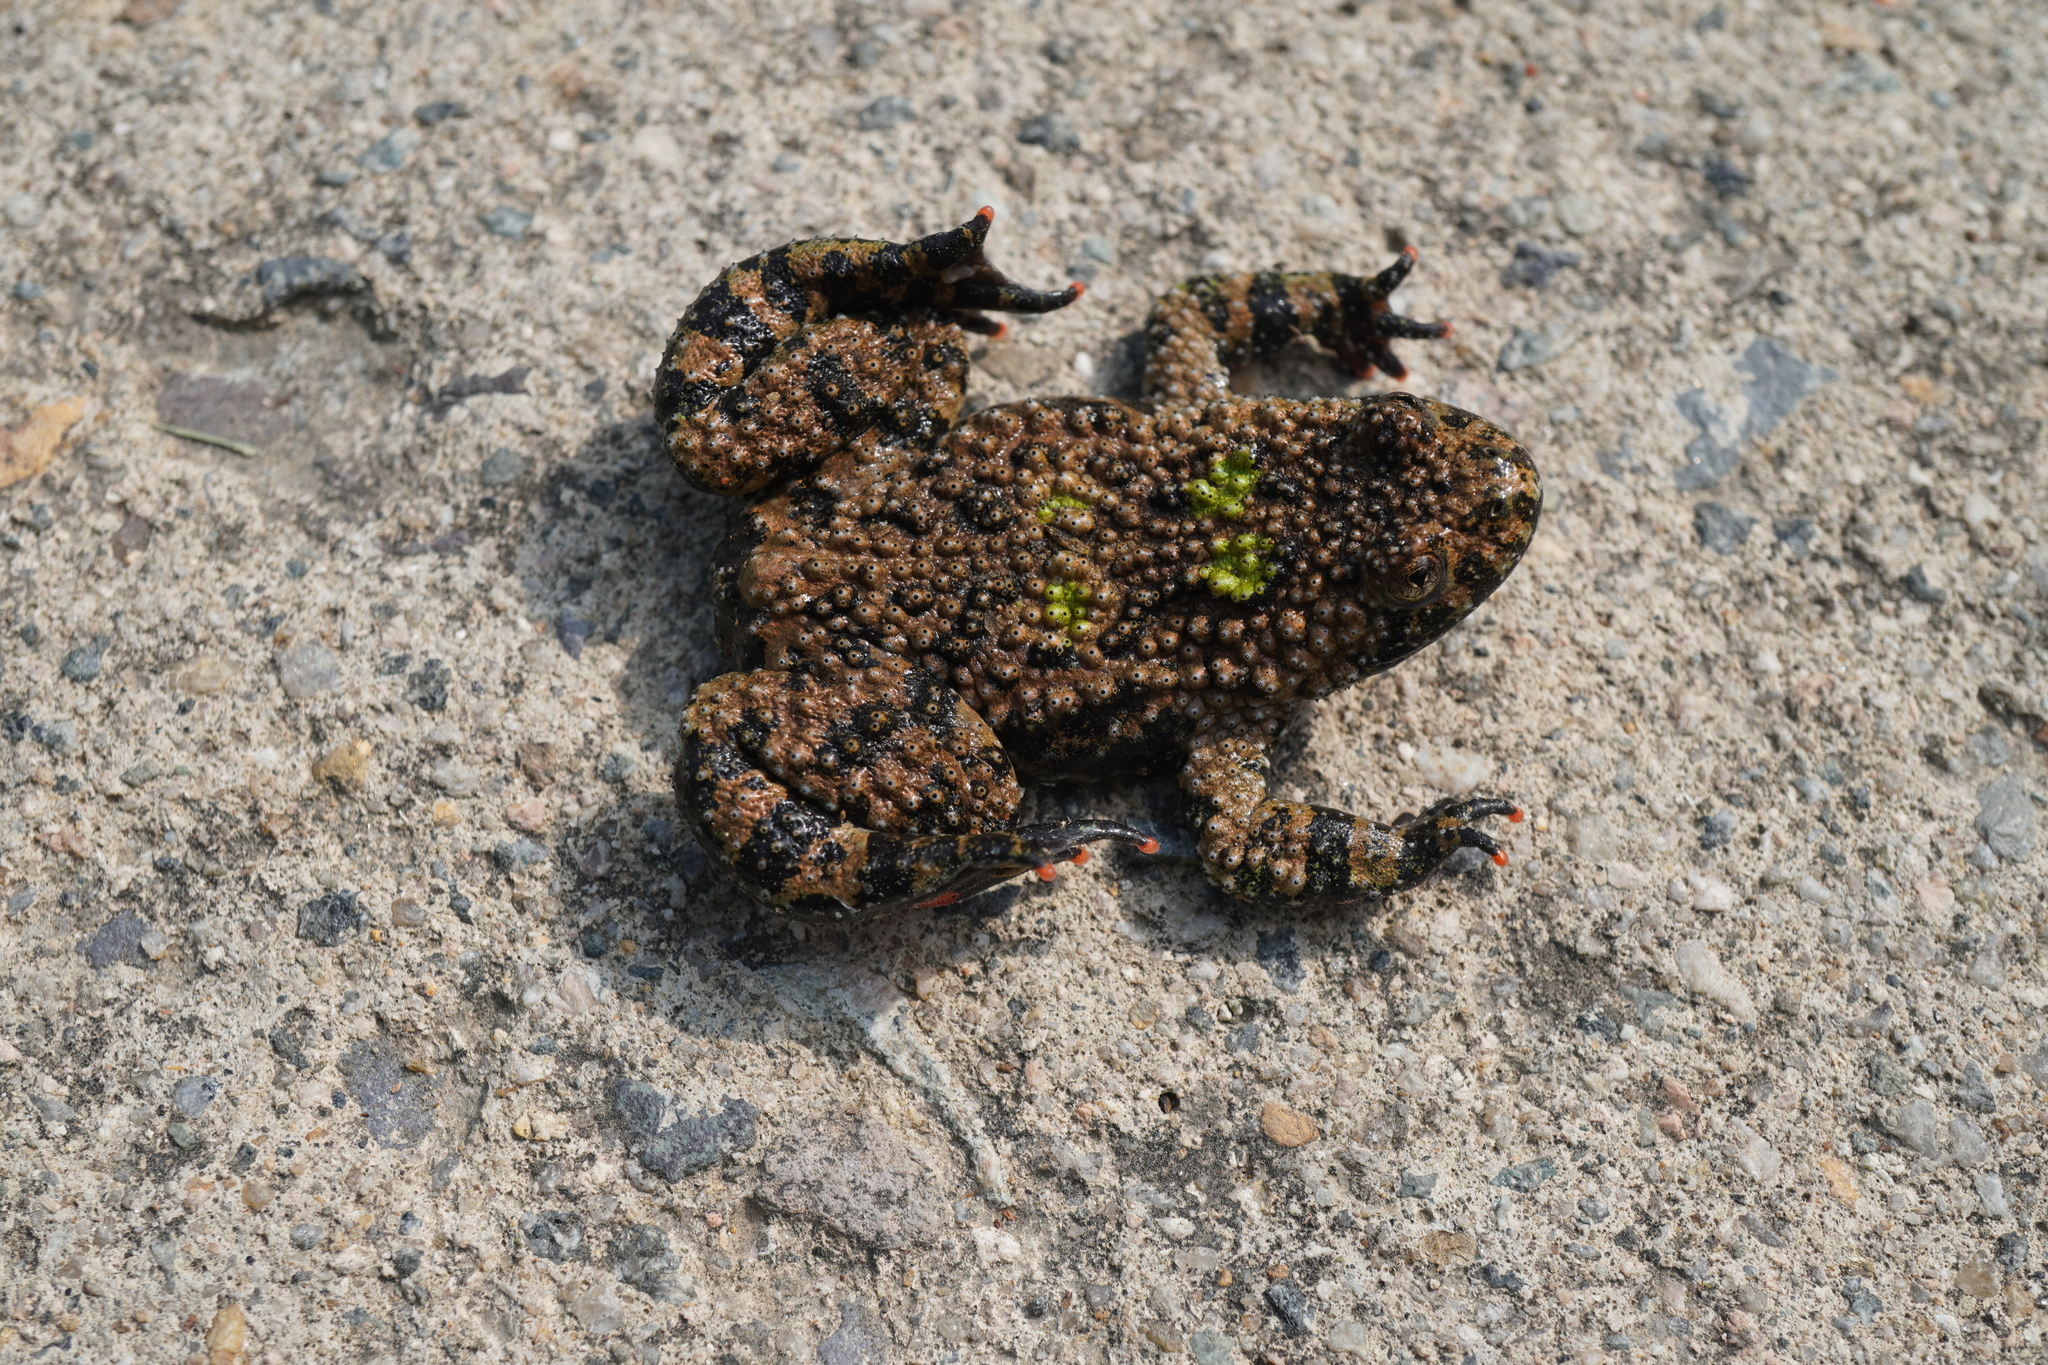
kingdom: Animalia
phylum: Chordata
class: Amphibia
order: Anura
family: Bombinatoridae
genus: Bombina
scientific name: Bombina orientalis
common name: Oriental firebelly toad
